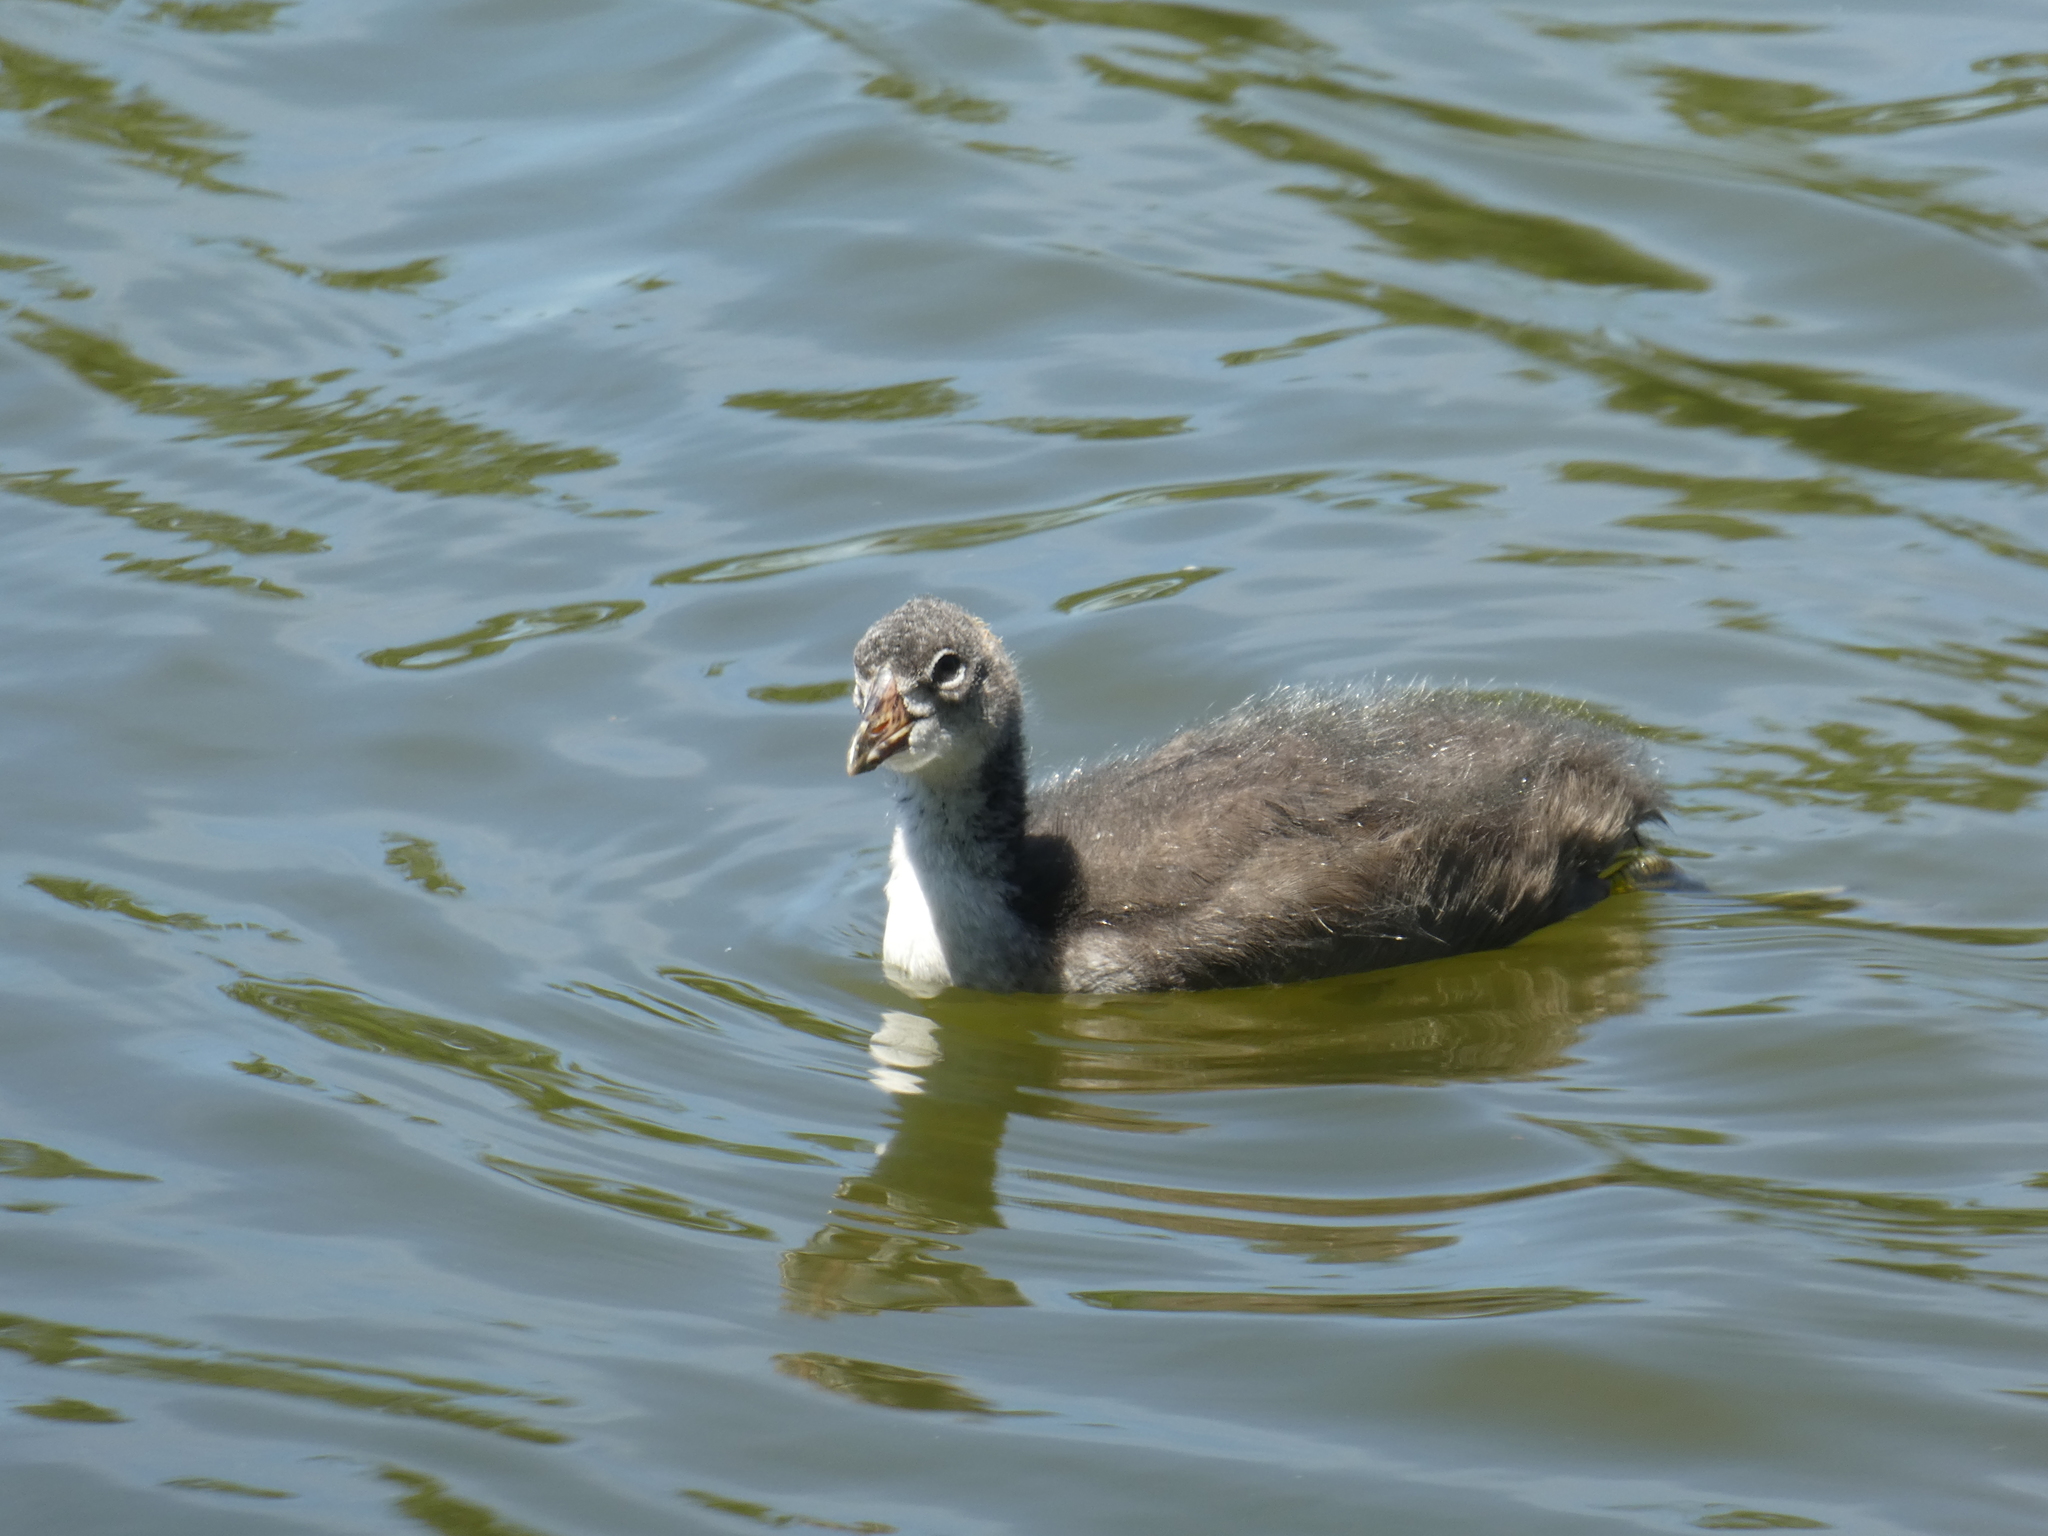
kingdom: Animalia
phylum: Chordata
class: Aves
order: Gruiformes
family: Rallidae
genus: Fulica
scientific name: Fulica americana
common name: American coot
